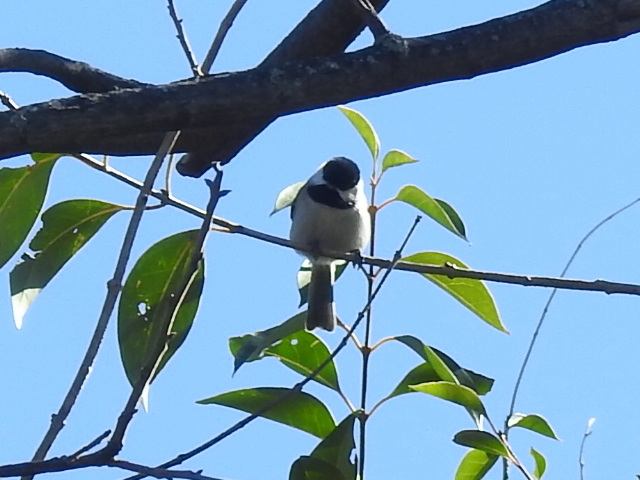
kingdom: Animalia
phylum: Chordata
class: Aves
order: Passeriformes
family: Paridae
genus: Poecile
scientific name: Poecile carolinensis
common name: Carolina chickadee
